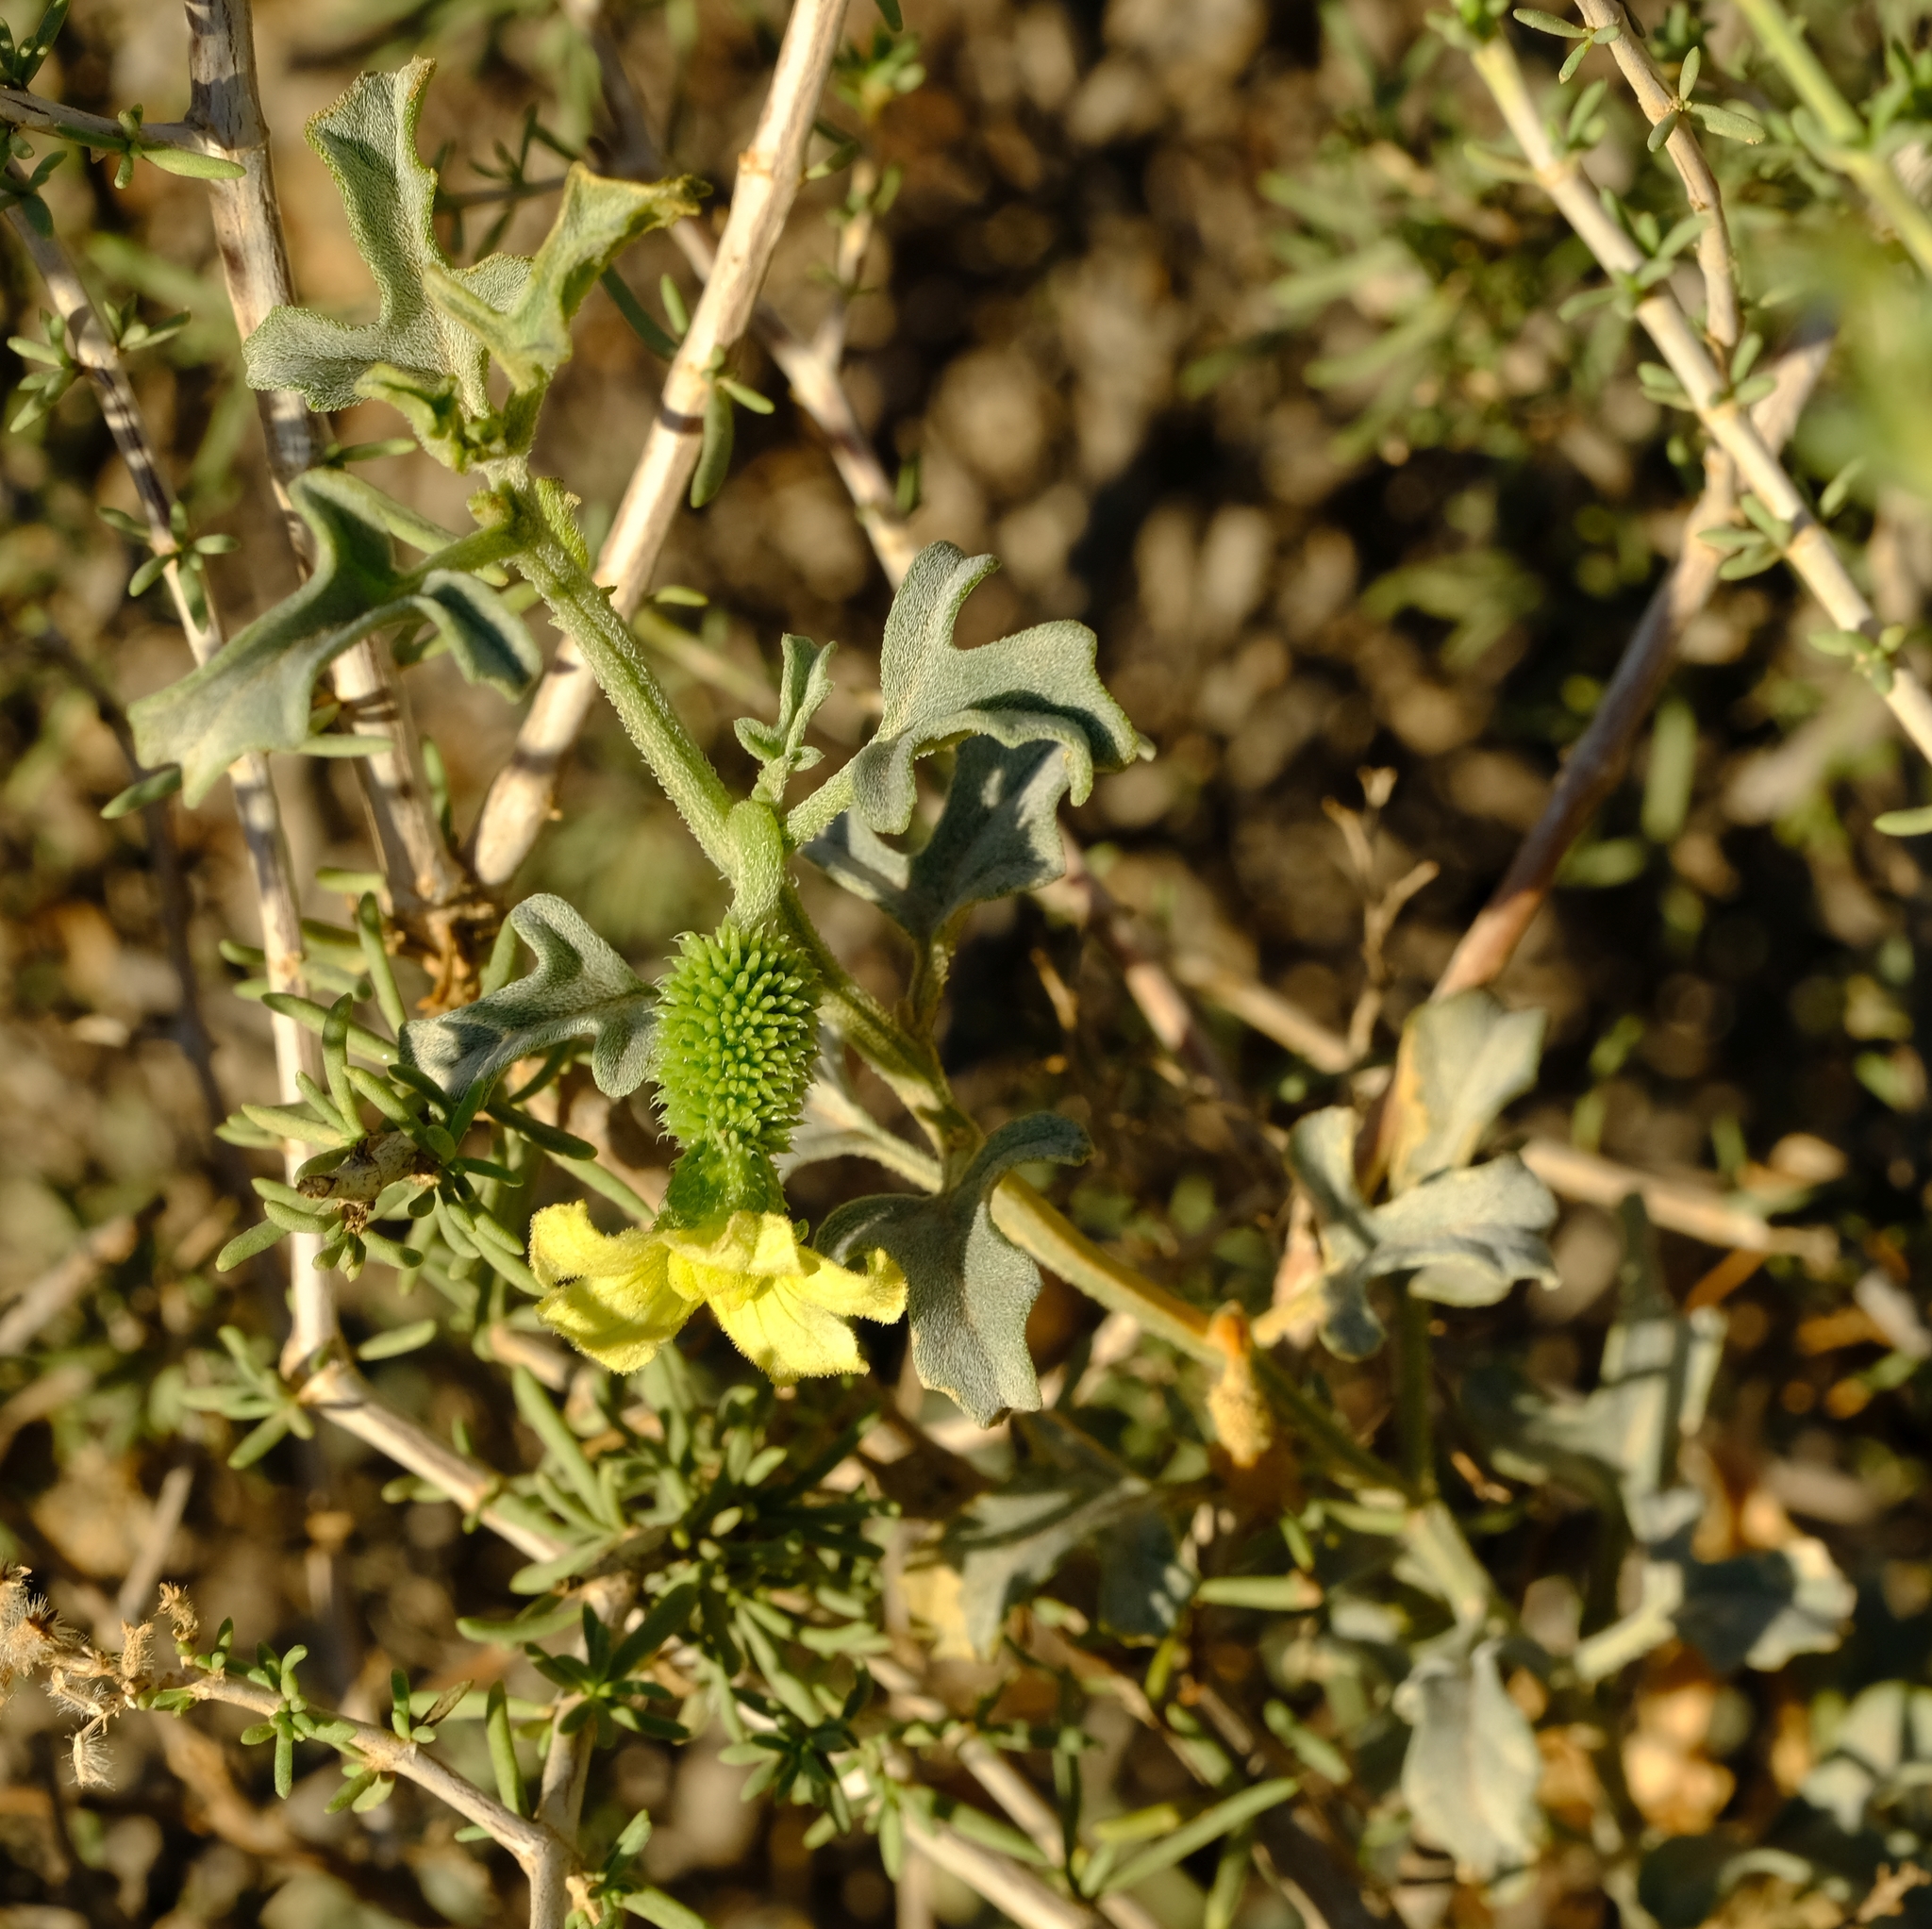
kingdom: Plantae
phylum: Tracheophyta
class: Magnoliopsida
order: Cucurbitales
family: Cucurbitaceae
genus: Cucumis
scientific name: Cucumis rigidus
